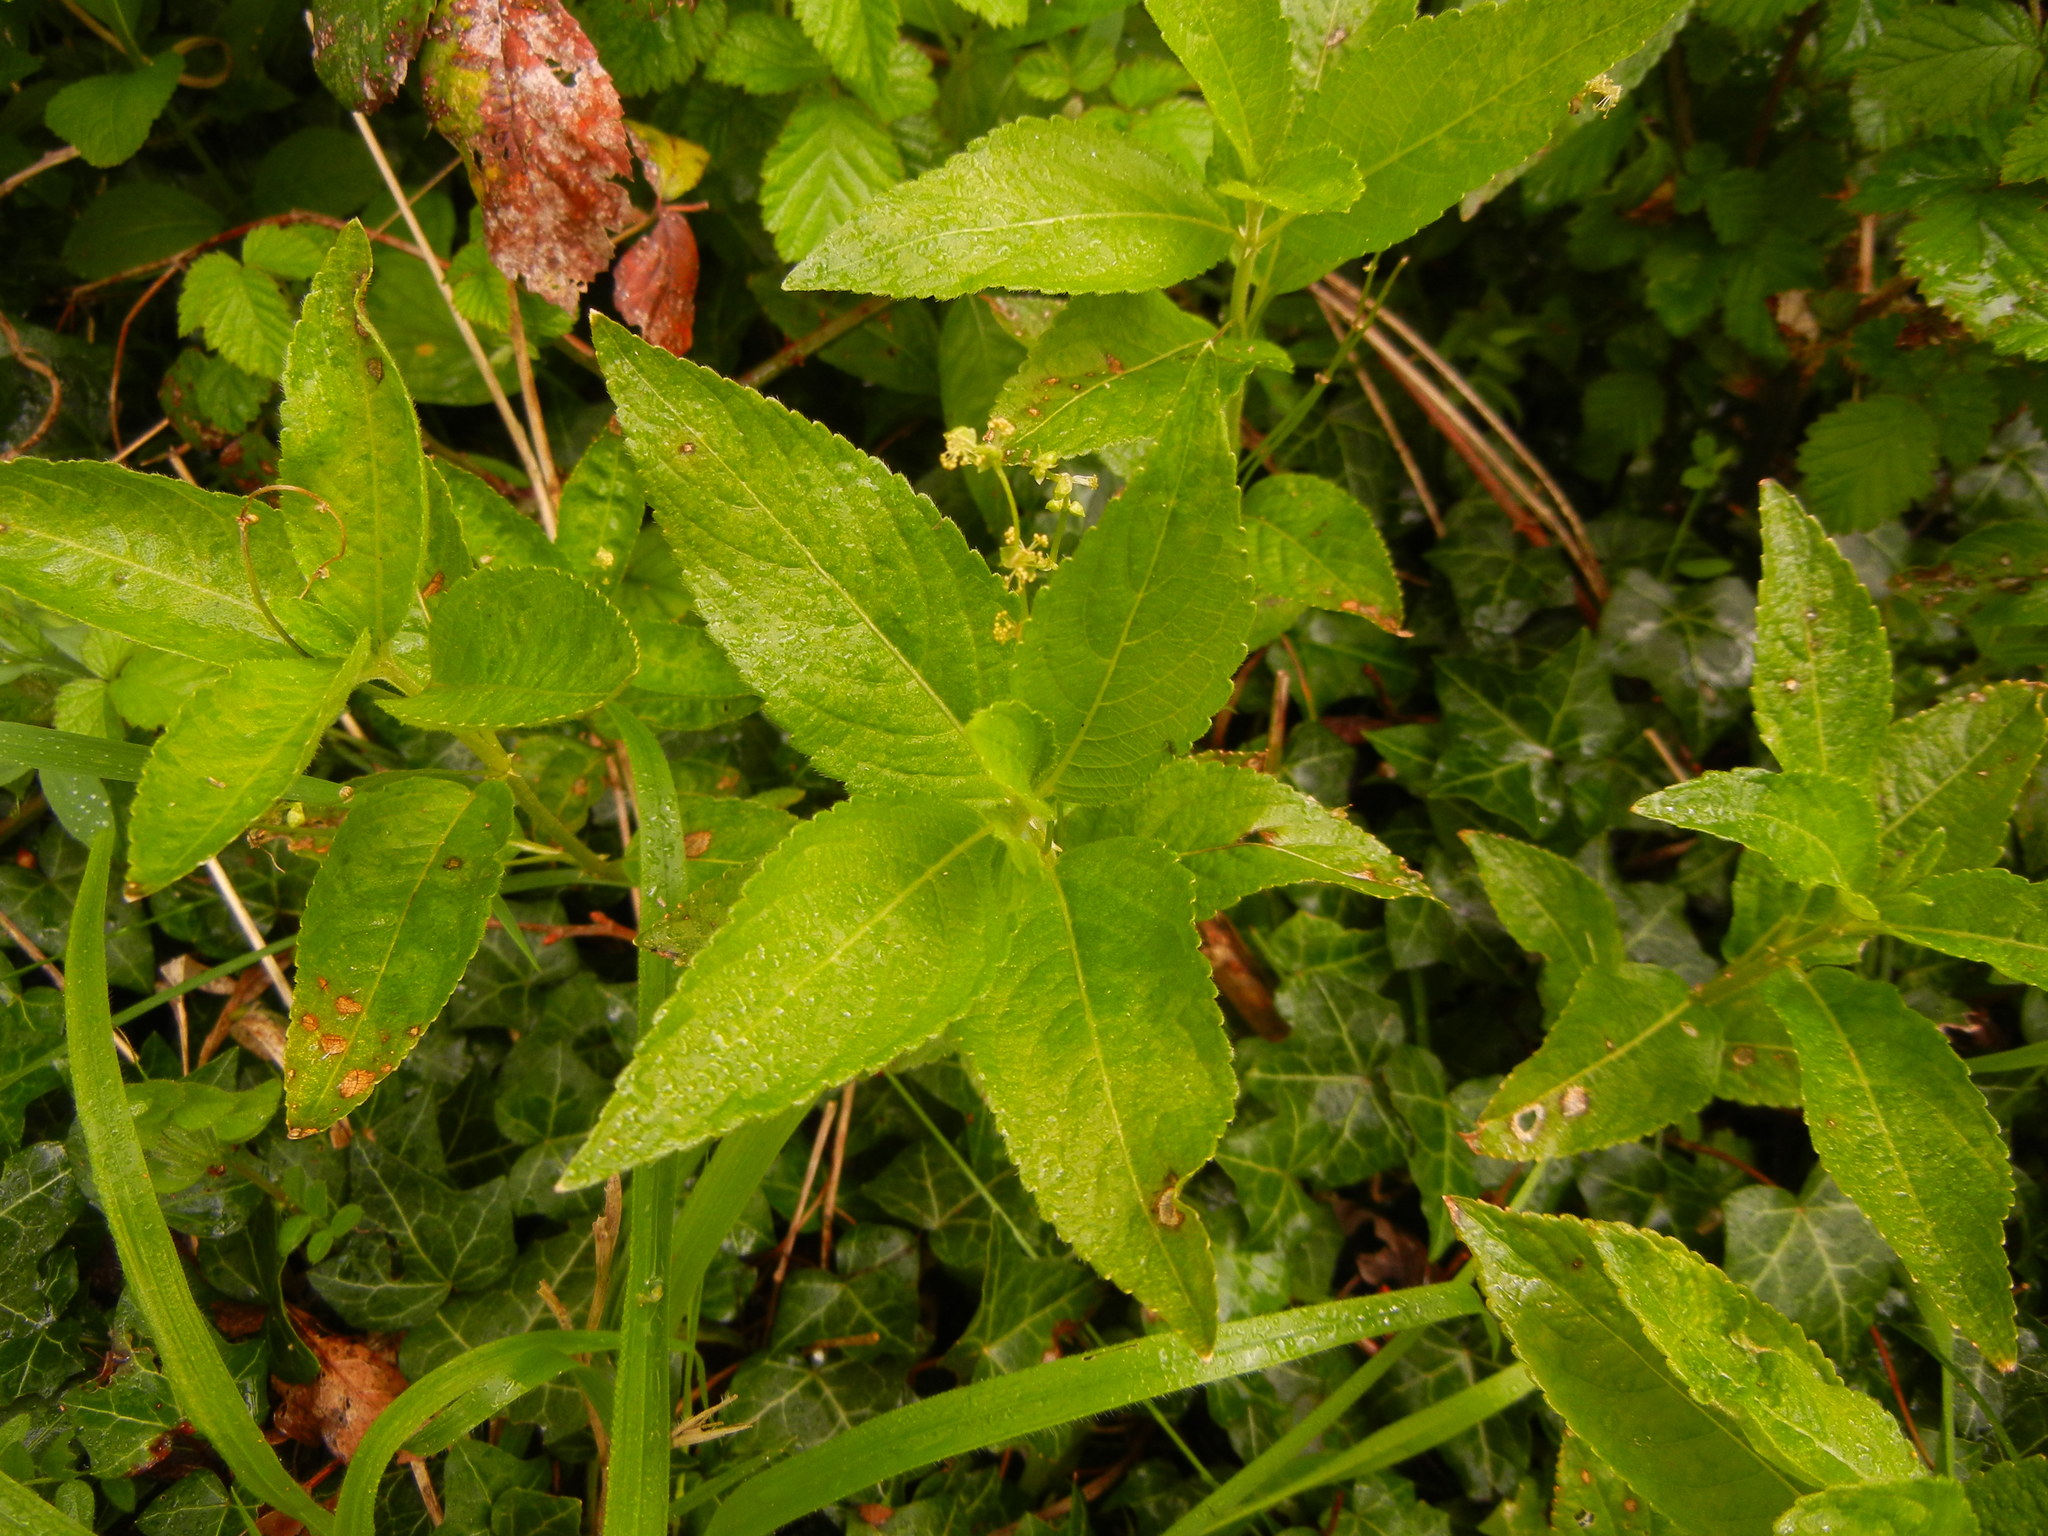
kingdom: Plantae
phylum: Tracheophyta
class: Magnoliopsida
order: Malpighiales
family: Euphorbiaceae
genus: Mercurialis
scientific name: Mercurialis perennis
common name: Dog mercury
